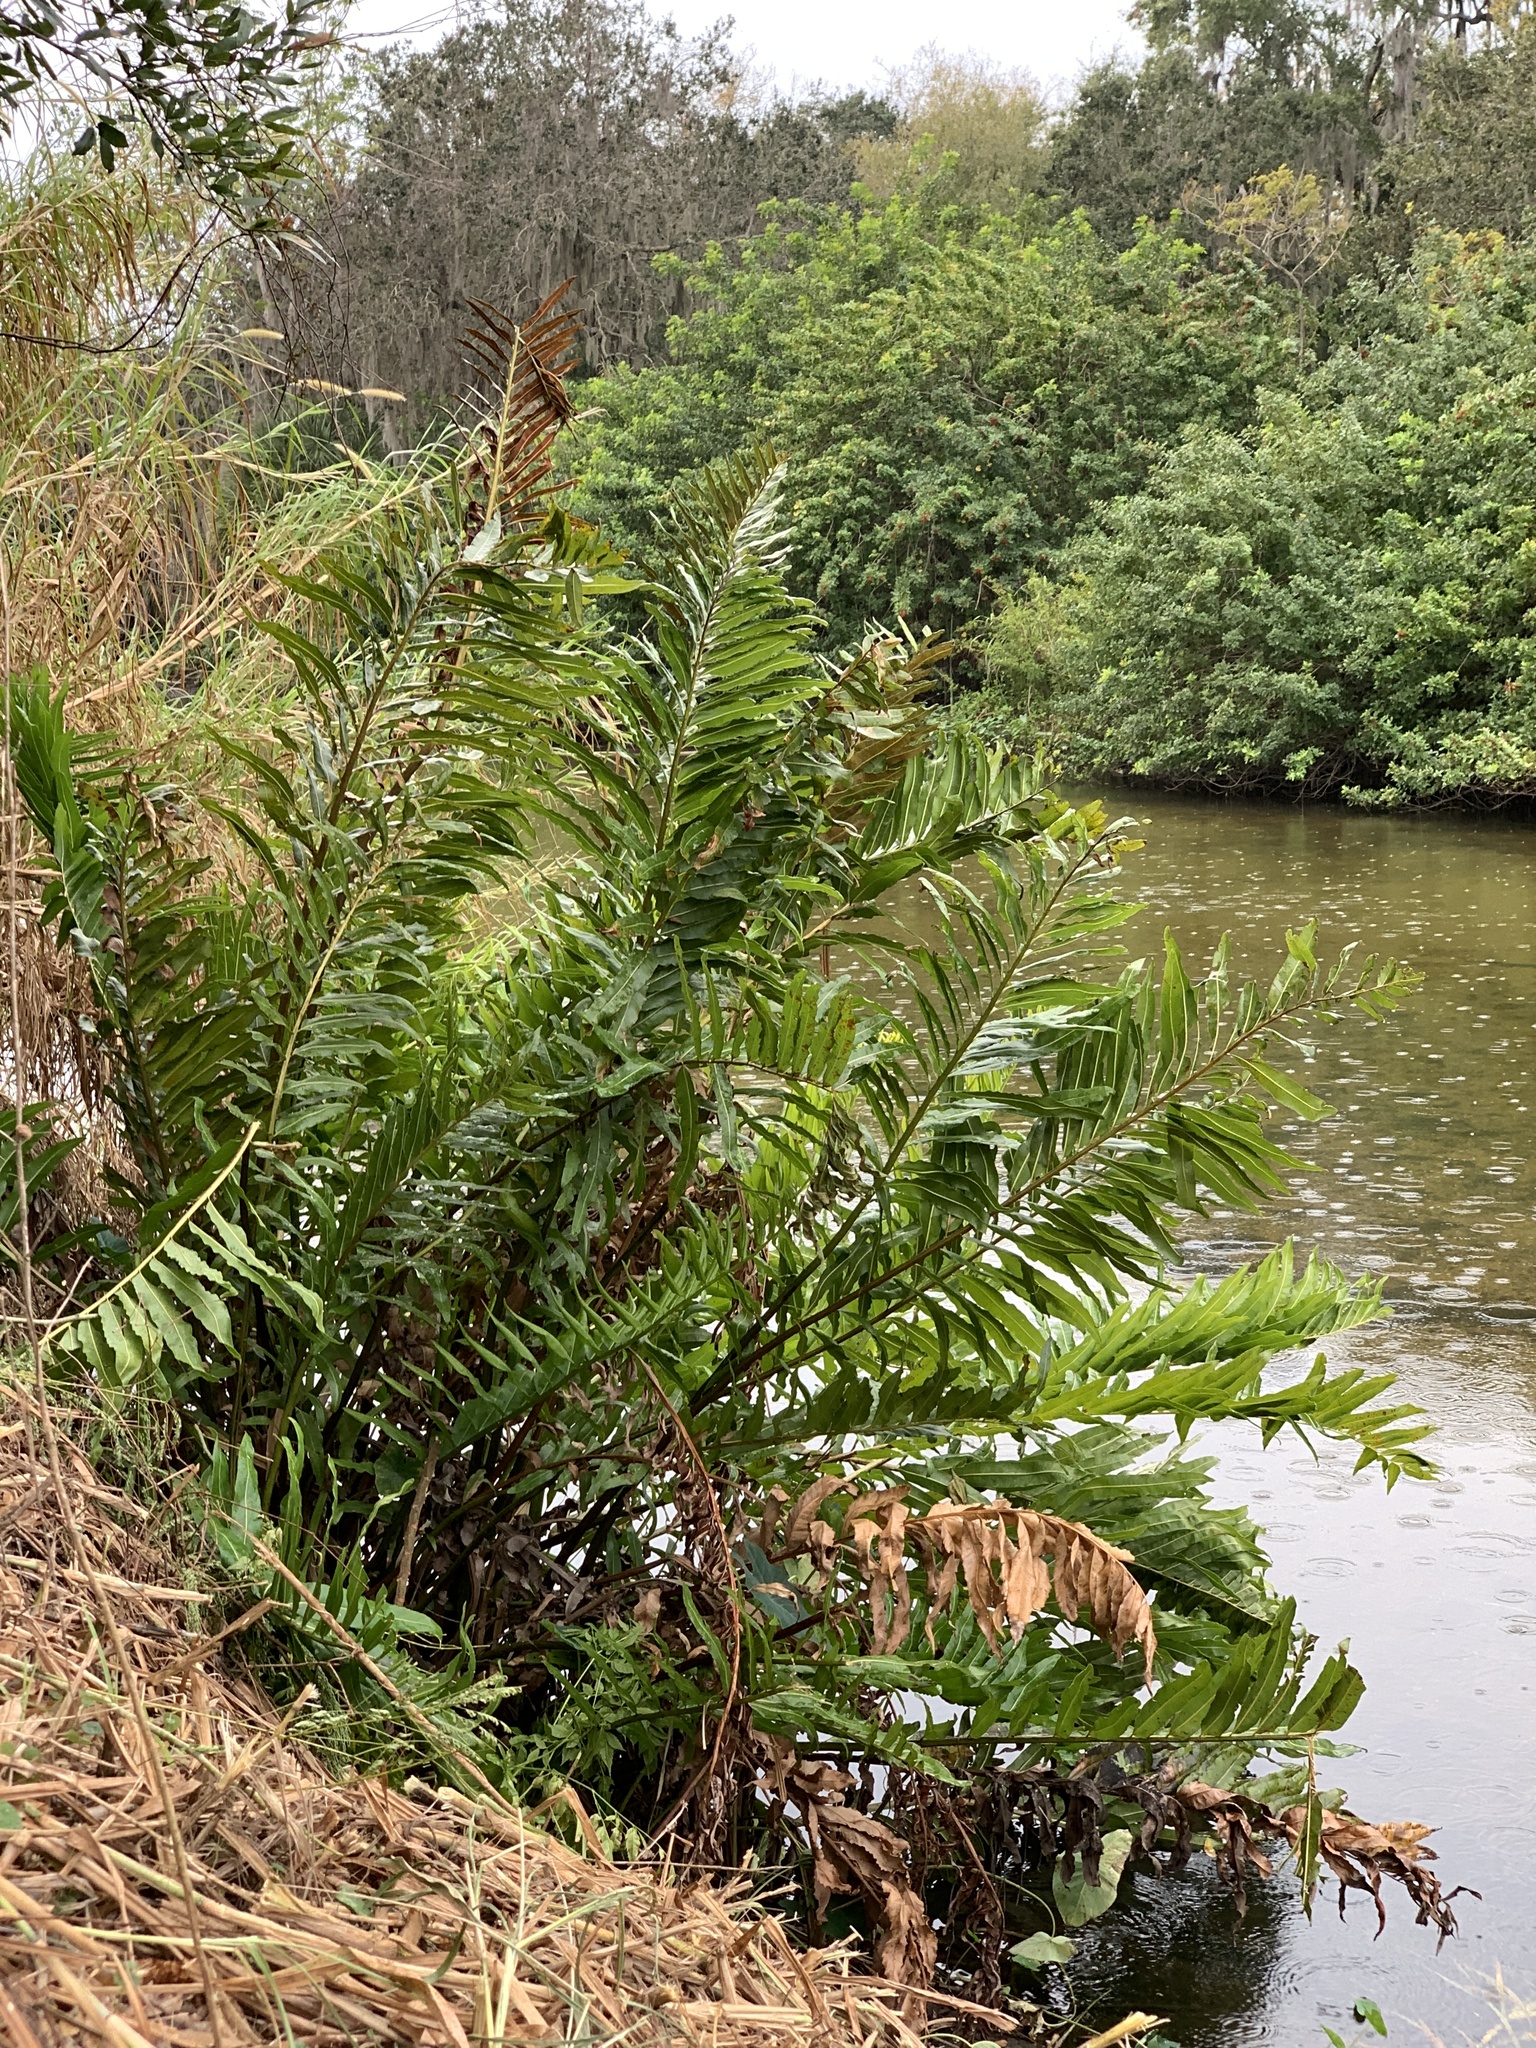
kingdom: Plantae
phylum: Tracheophyta
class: Polypodiopsida
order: Polypodiales
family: Pteridaceae
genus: Acrostichum
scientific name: Acrostichum danaeifolium
